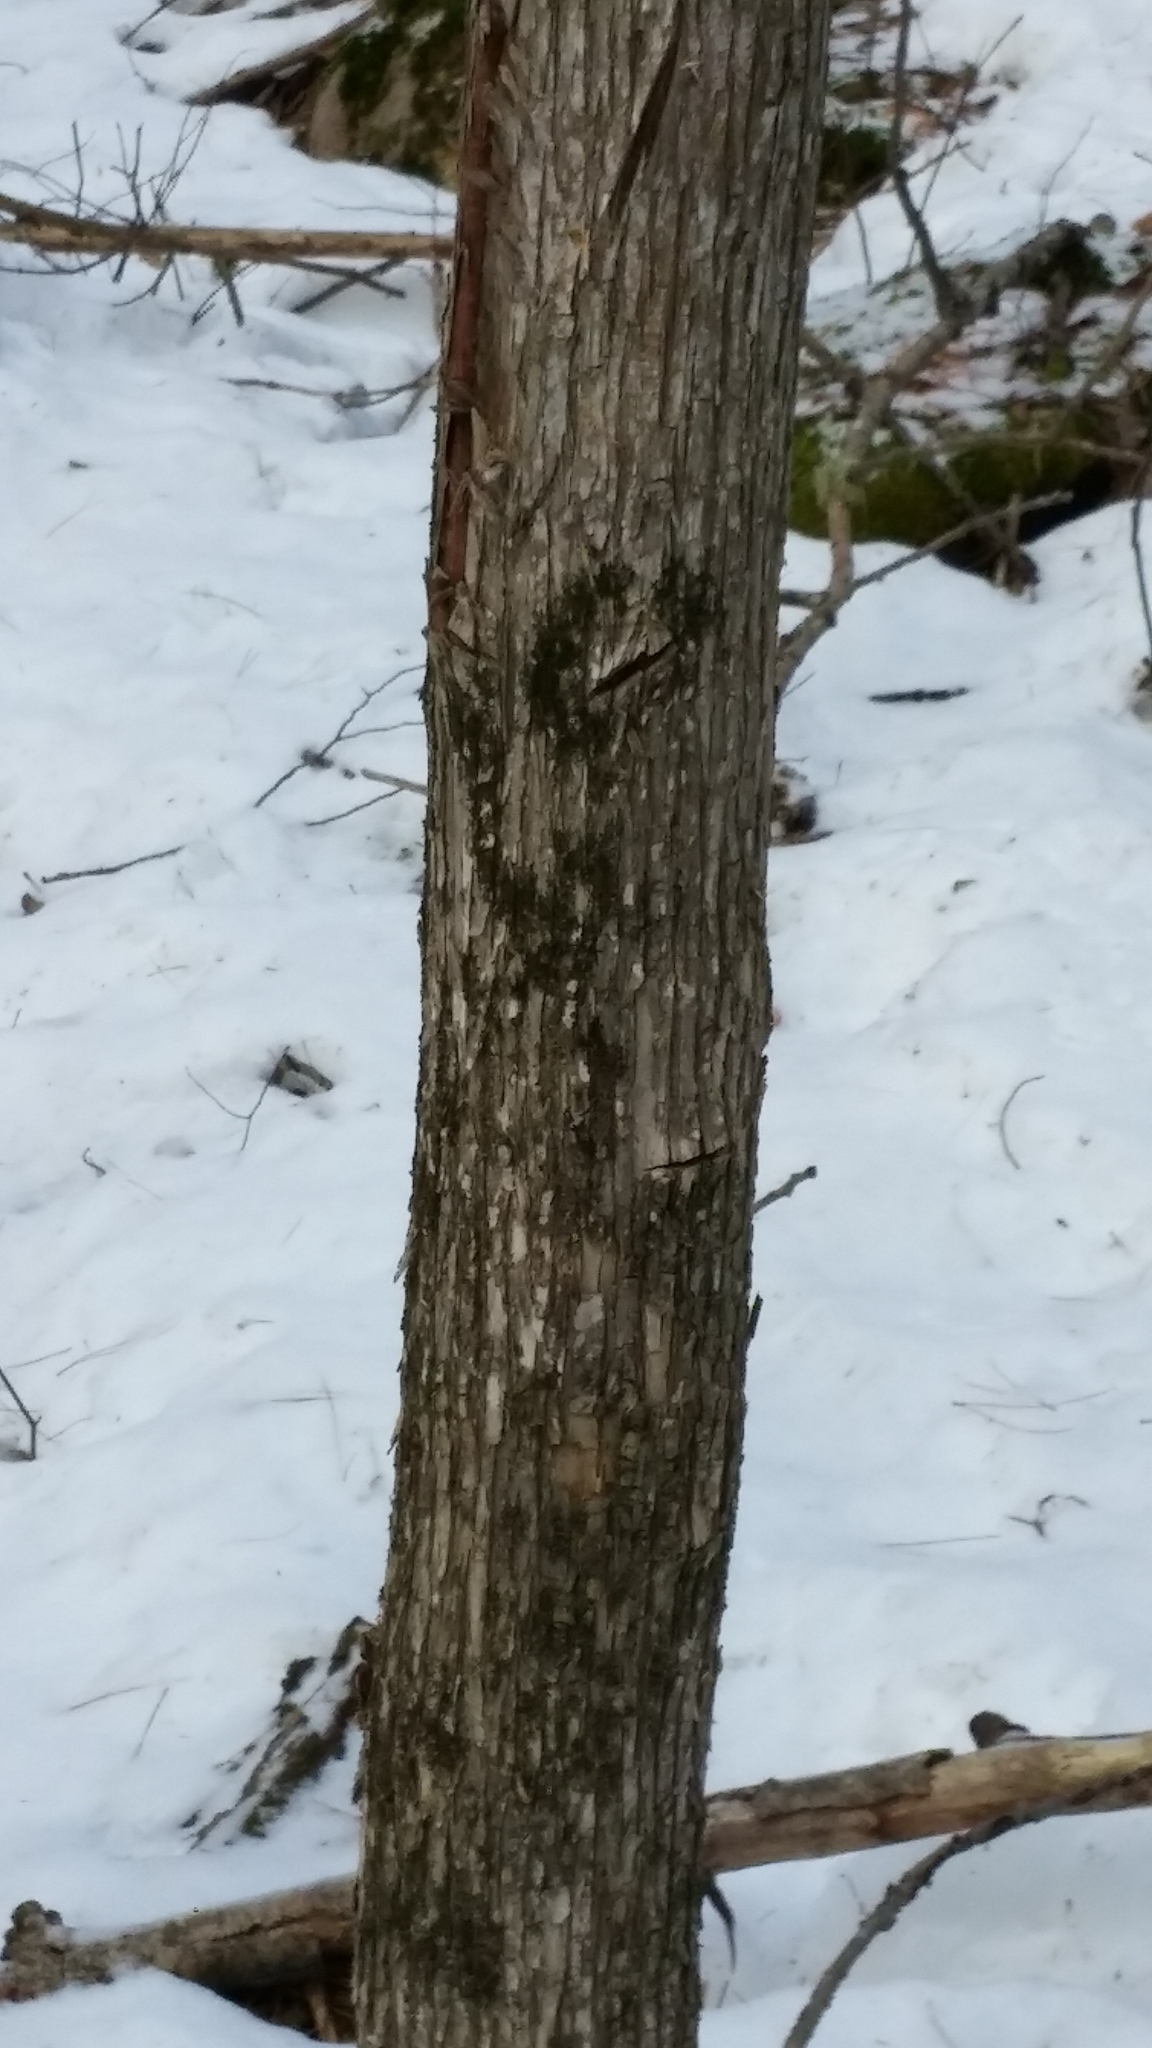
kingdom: Plantae
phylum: Tracheophyta
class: Magnoliopsida
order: Fagales
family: Betulaceae
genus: Ostrya
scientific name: Ostrya virginiana
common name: Ironwood
